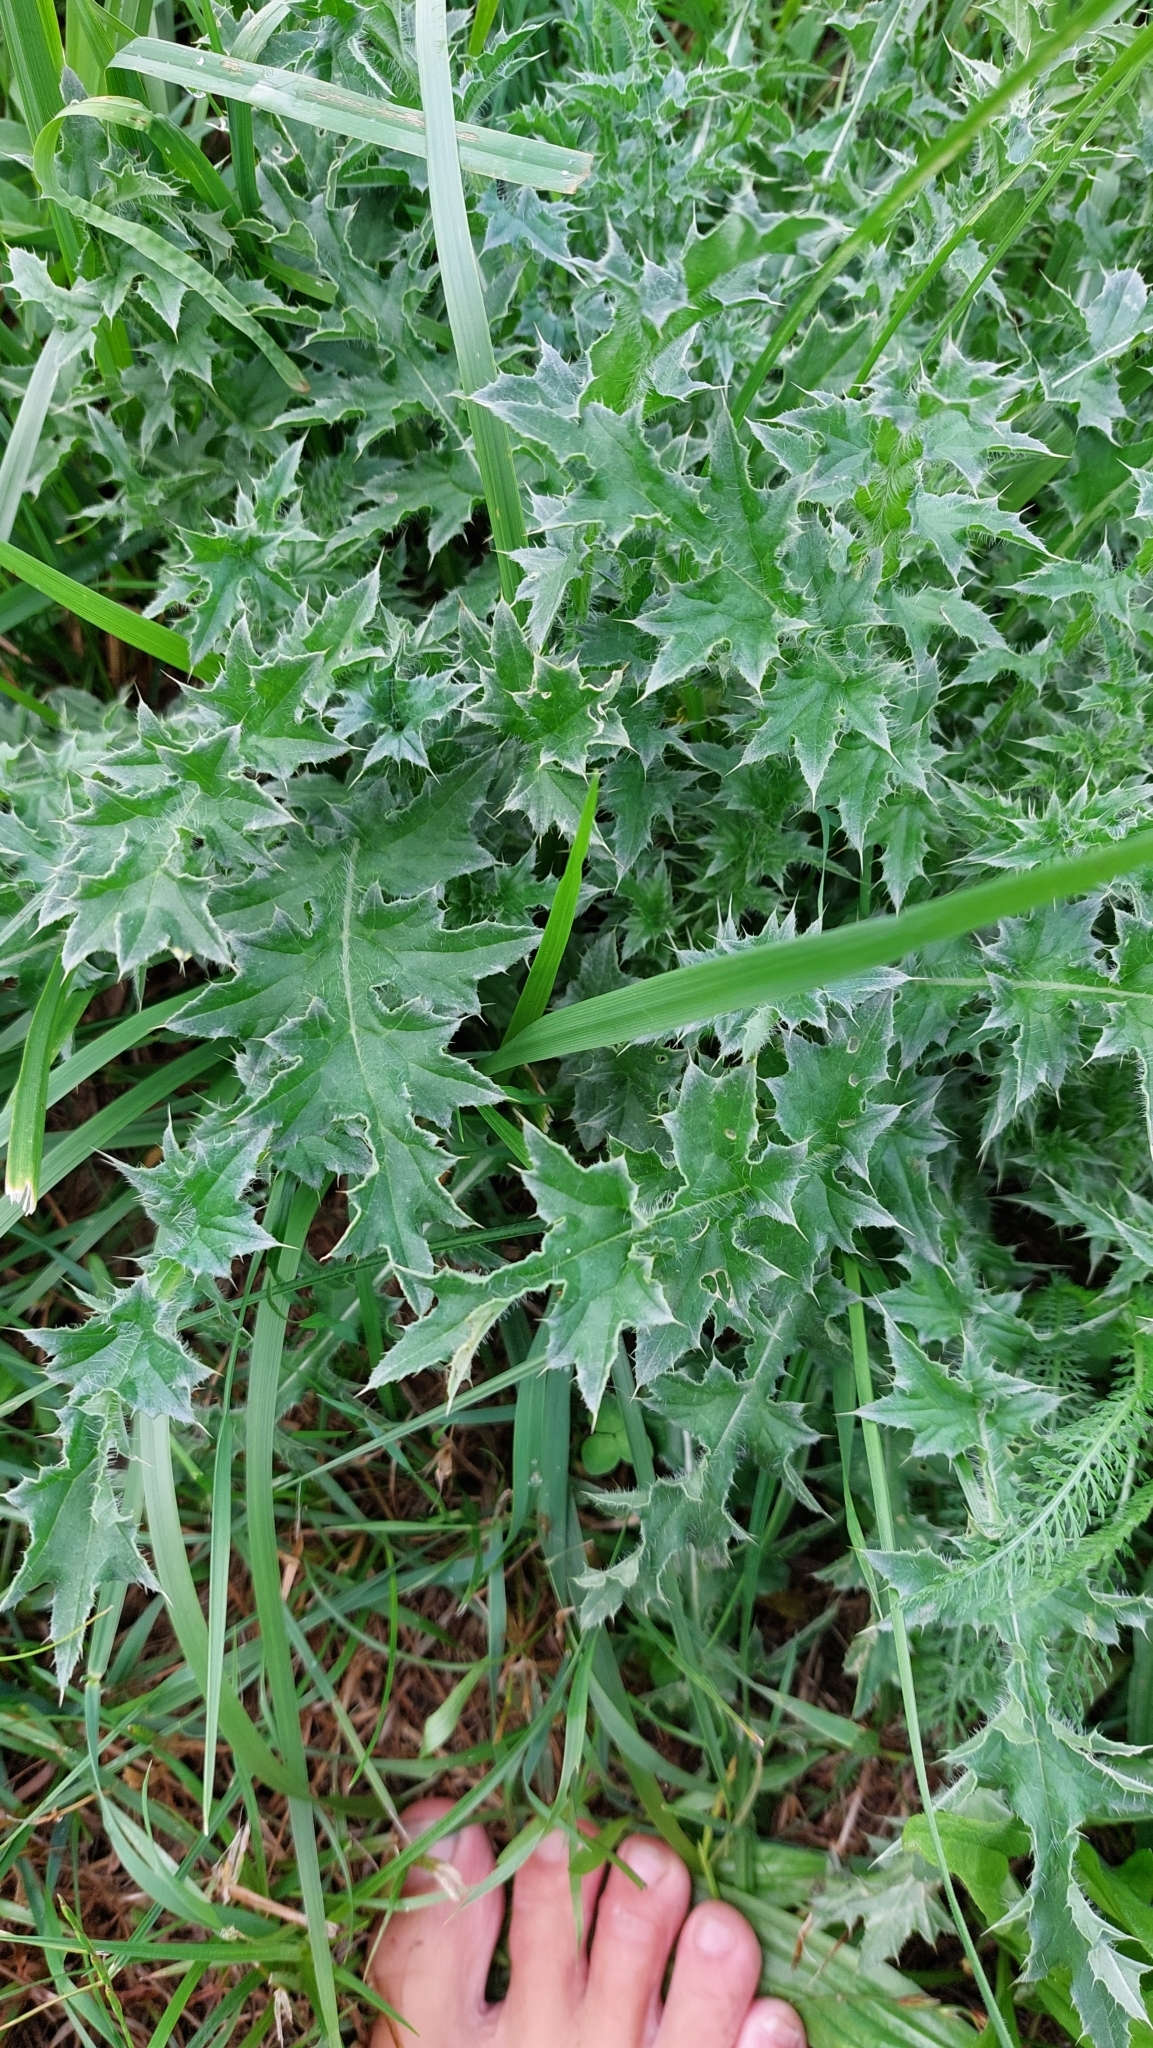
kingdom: Plantae
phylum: Tracheophyta
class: Magnoliopsida
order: Asterales
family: Asteraceae
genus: Carduus
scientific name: Carduus acanthoides
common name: Plumeless thistle
